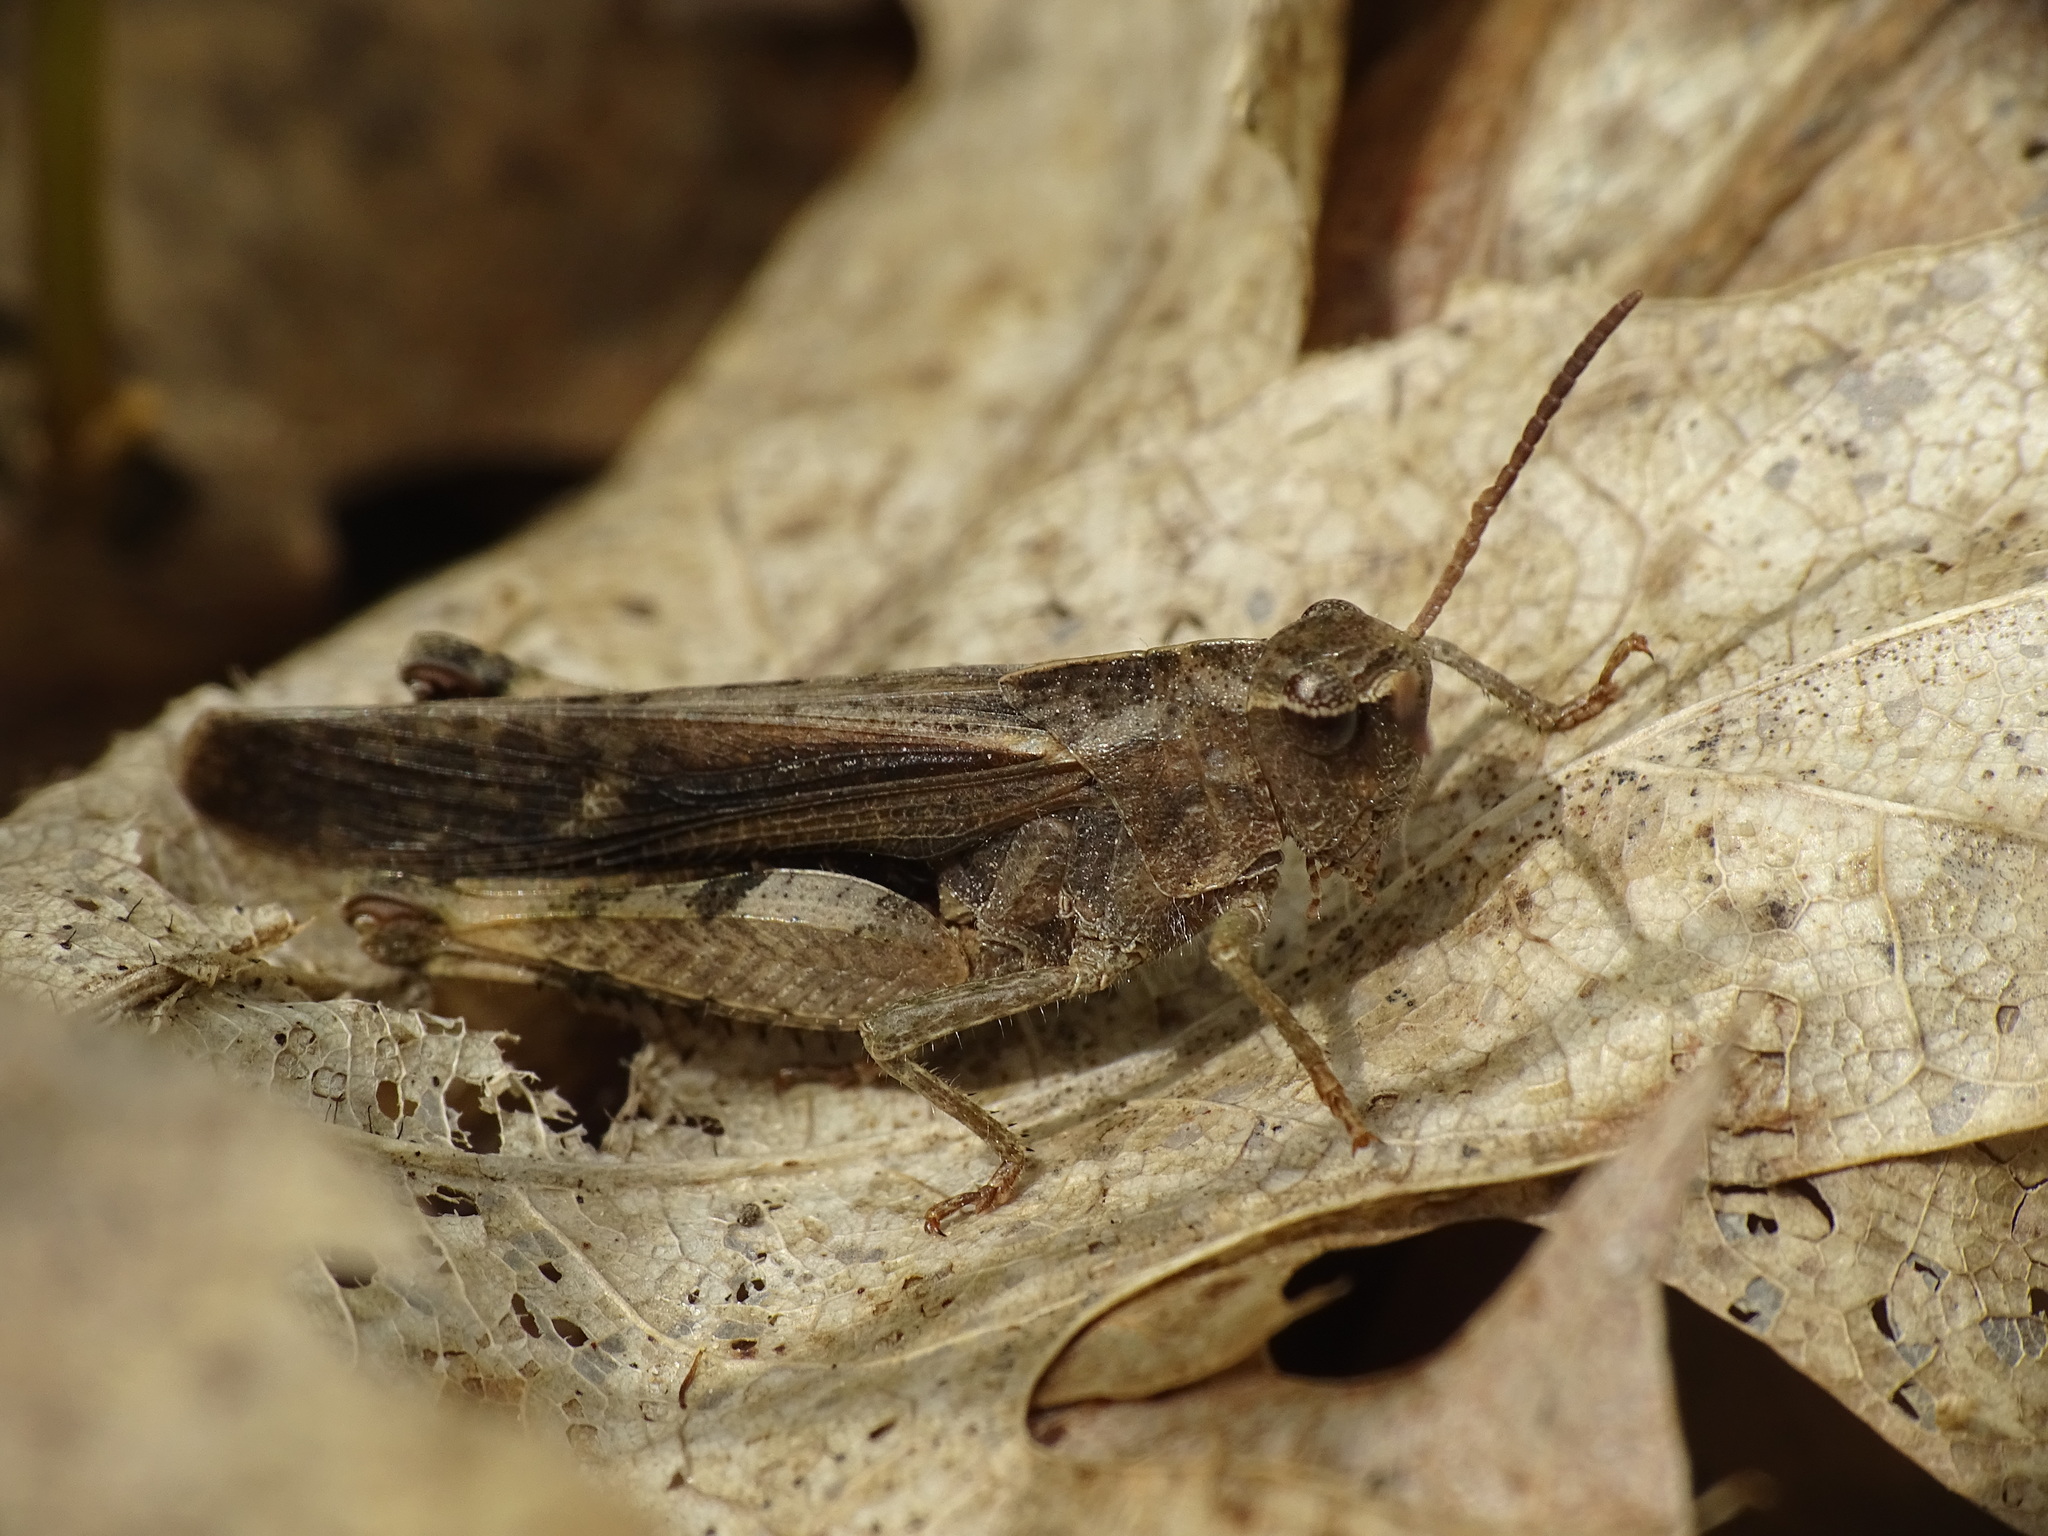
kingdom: Animalia
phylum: Arthropoda
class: Insecta
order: Orthoptera
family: Acrididae
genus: Chortophaga
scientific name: Chortophaga viridifasciata
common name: Green-striped grasshopper
